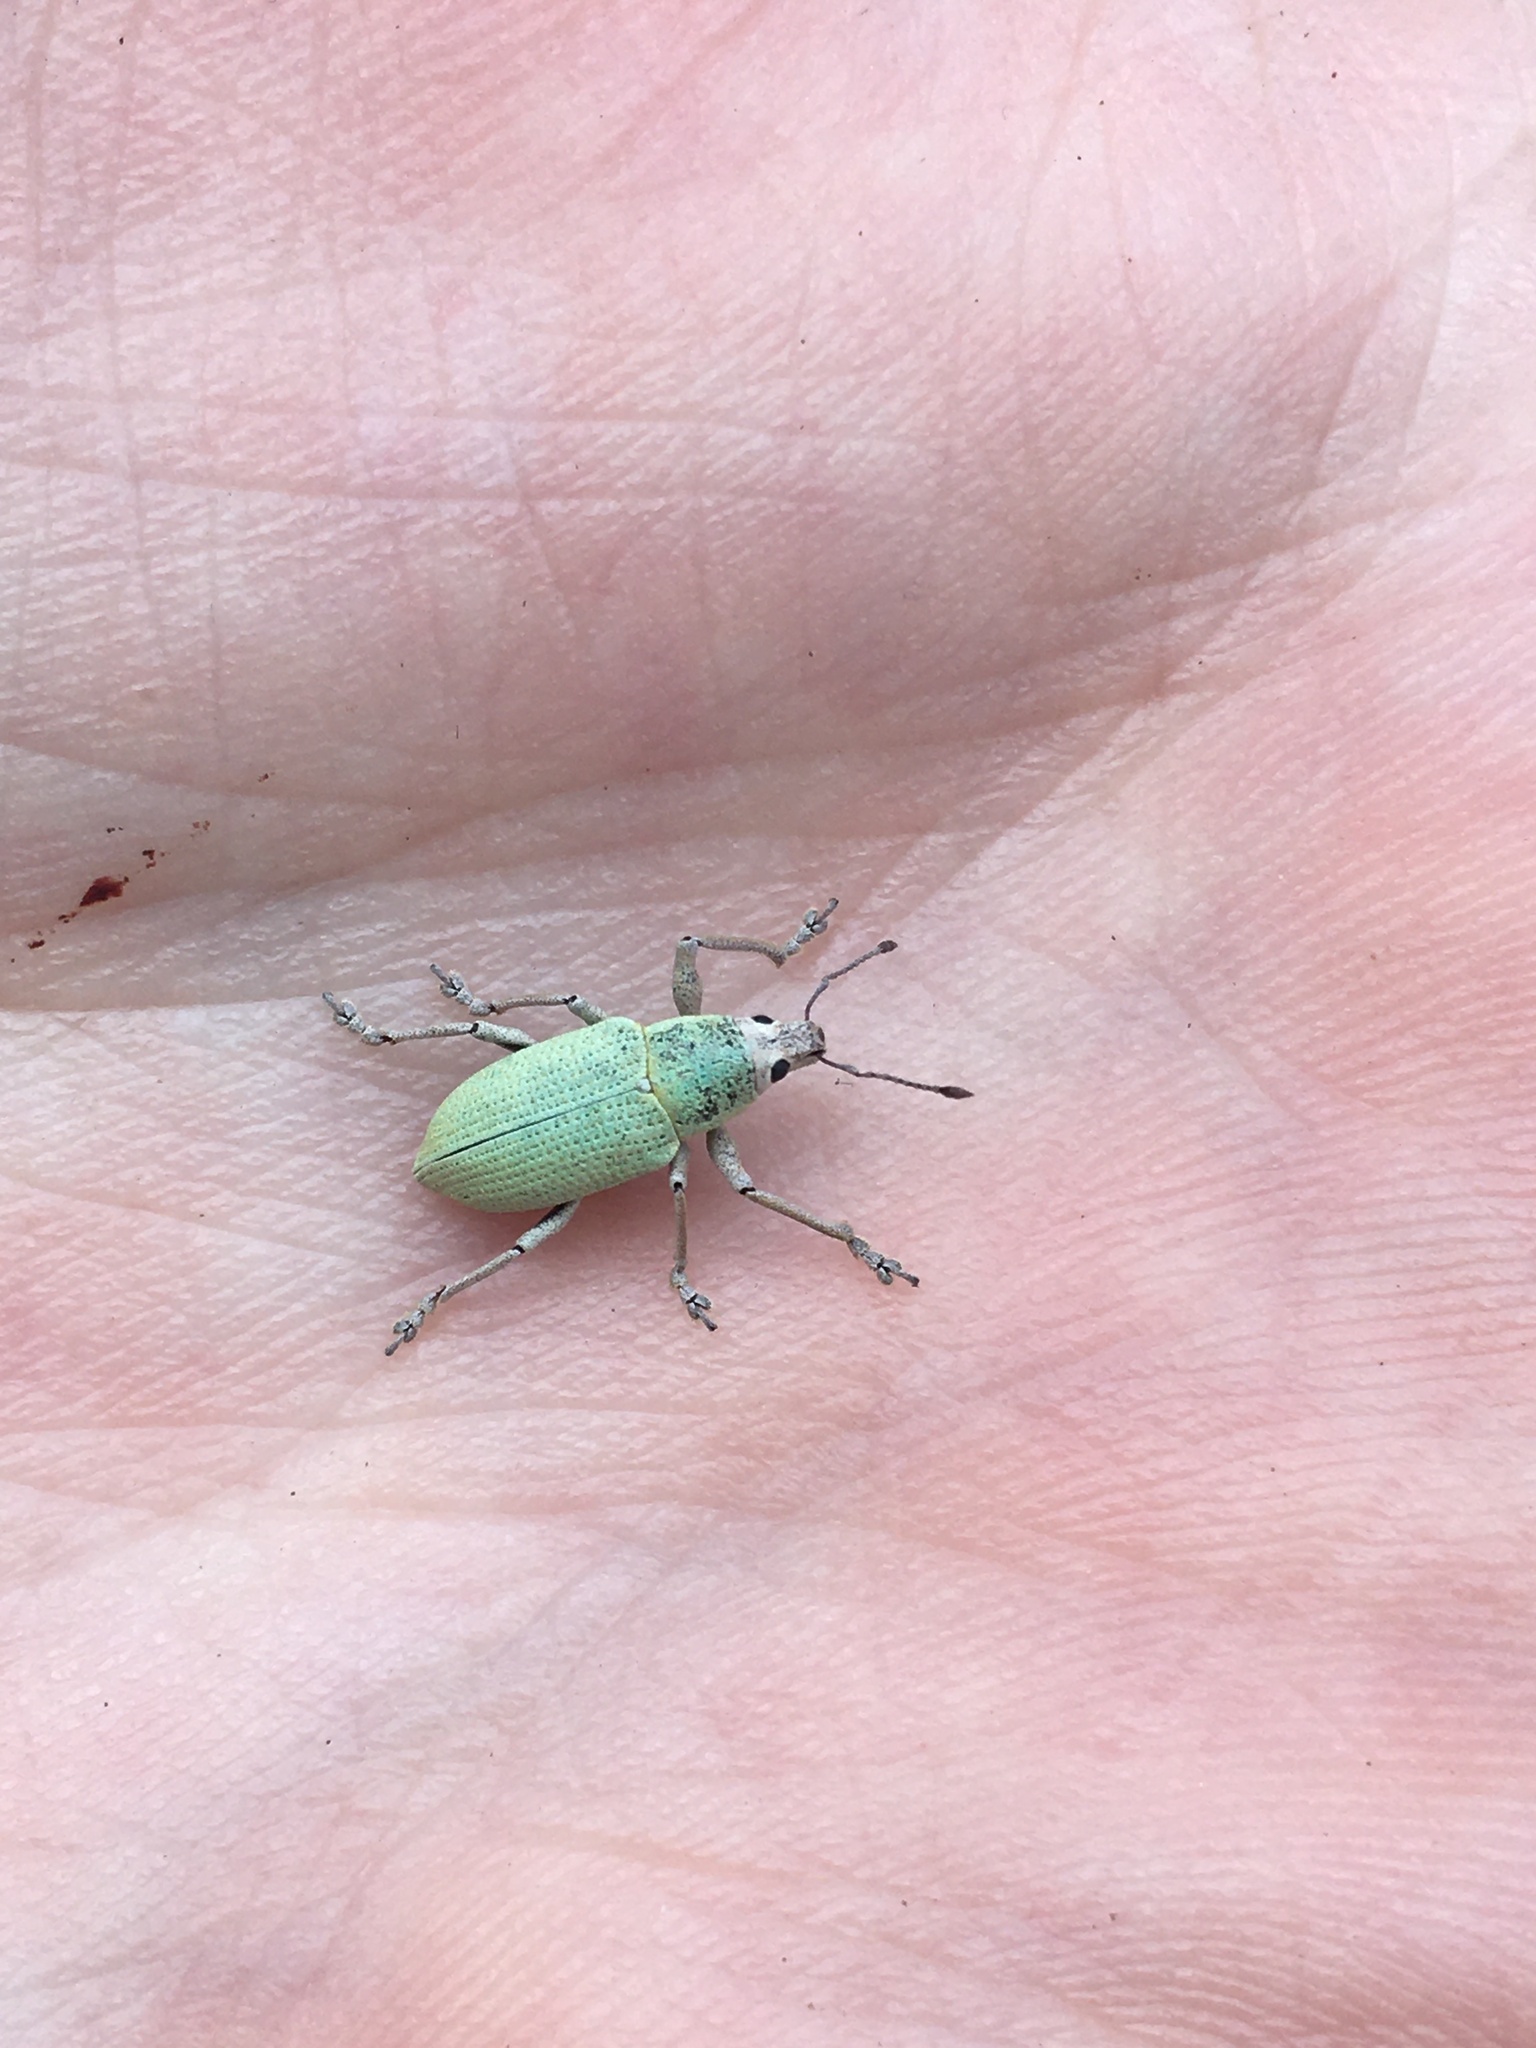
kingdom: Animalia
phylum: Arthropoda
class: Insecta
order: Coleoptera
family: Curculionidae
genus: Pachnaeus
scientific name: Pachnaeus opalus
